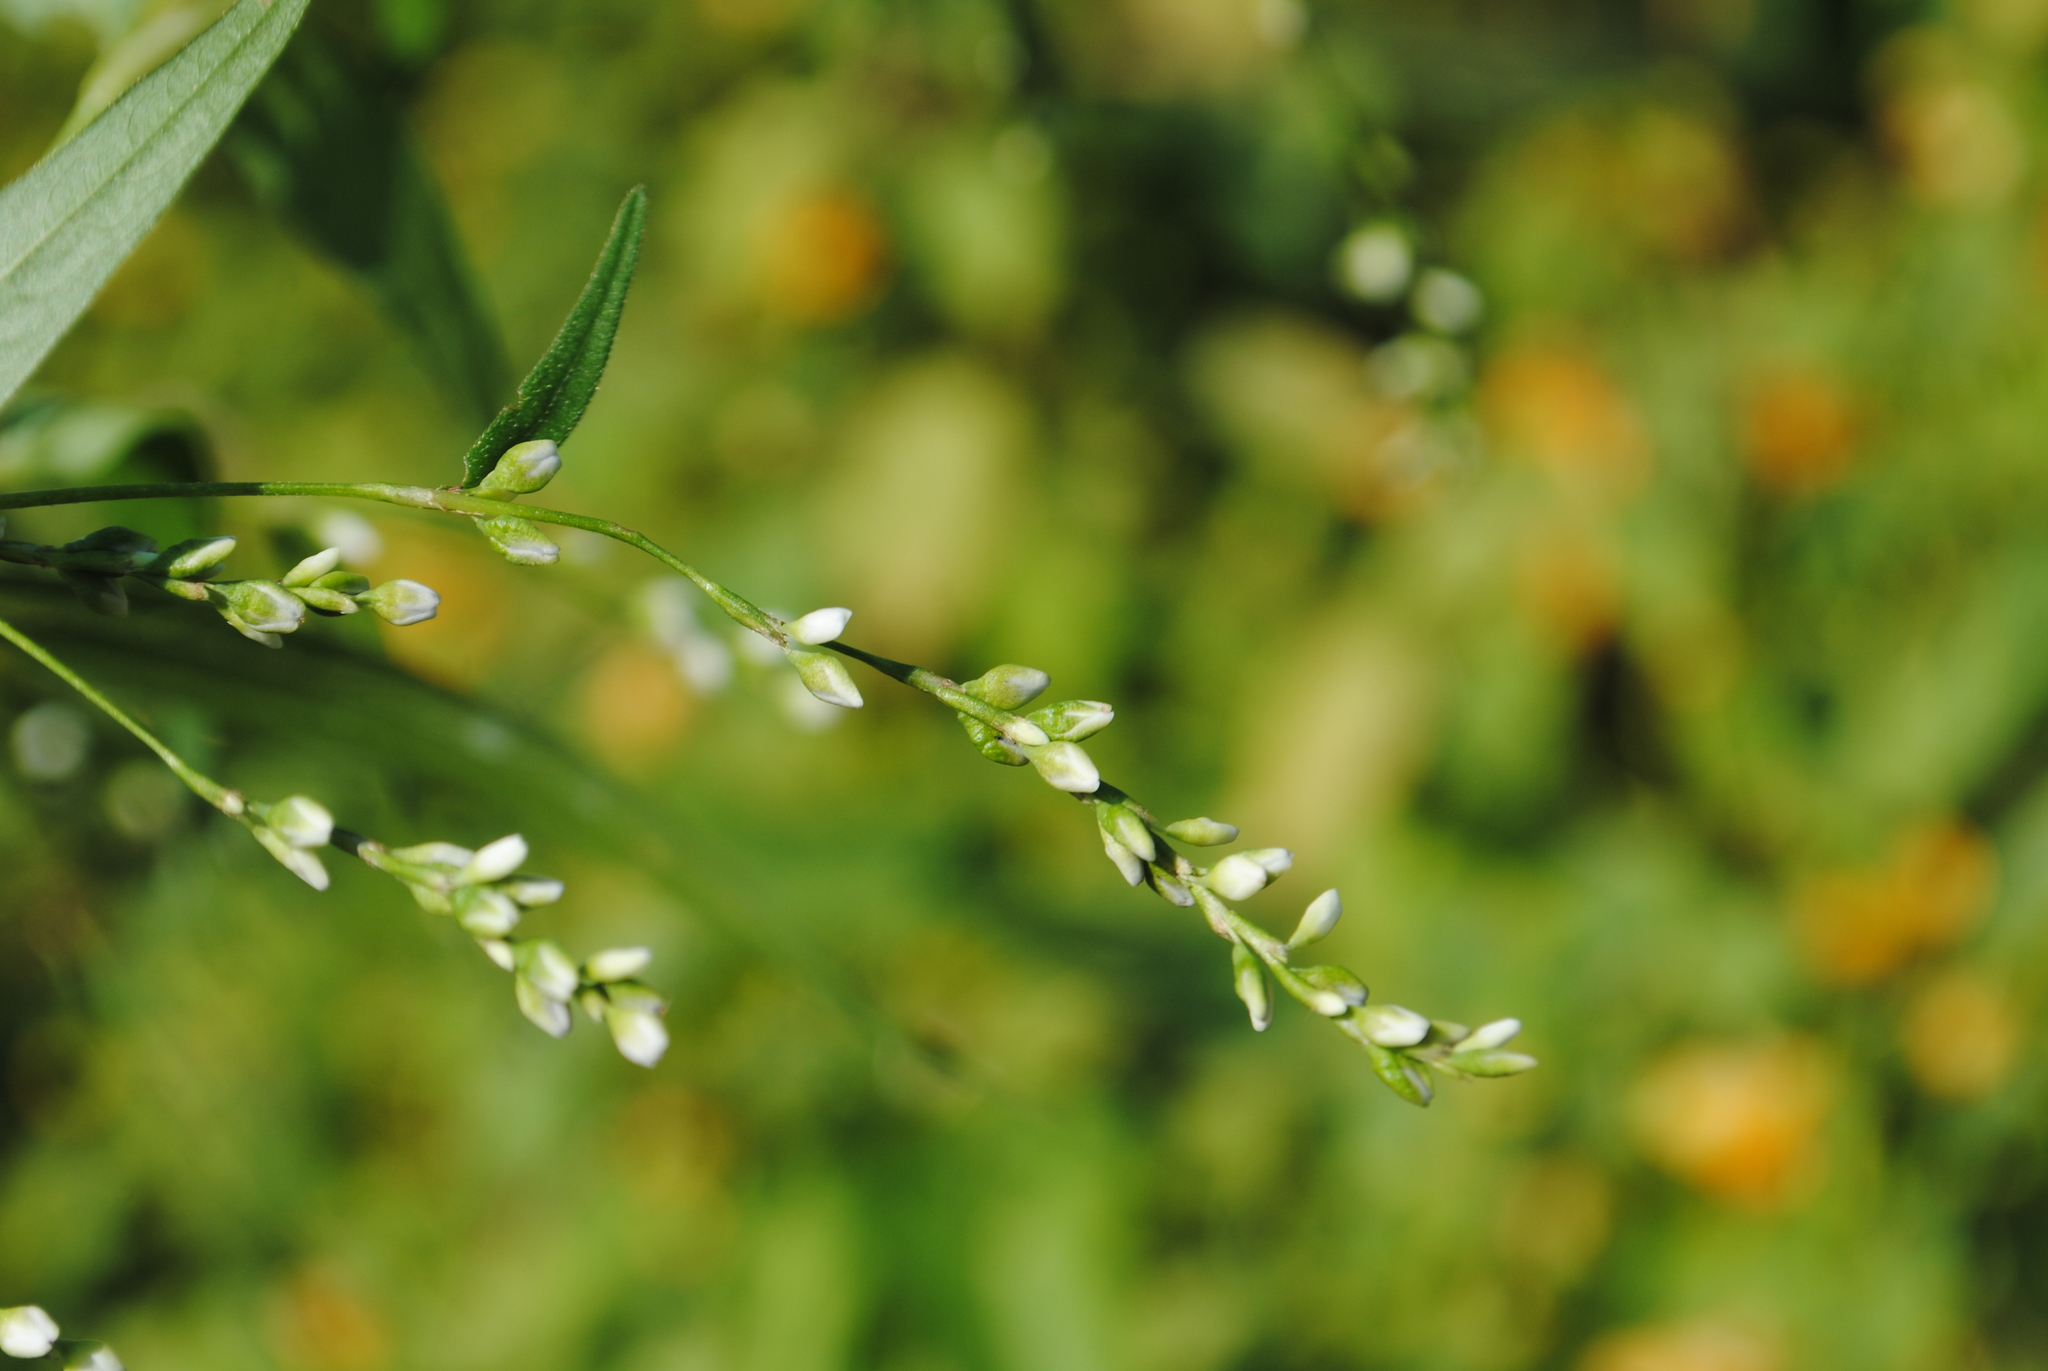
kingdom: Plantae
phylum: Tracheophyta
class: Magnoliopsida
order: Caryophyllales
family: Polygonaceae
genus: Persicaria
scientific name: Persicaria punctata
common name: Dotted smartweed
